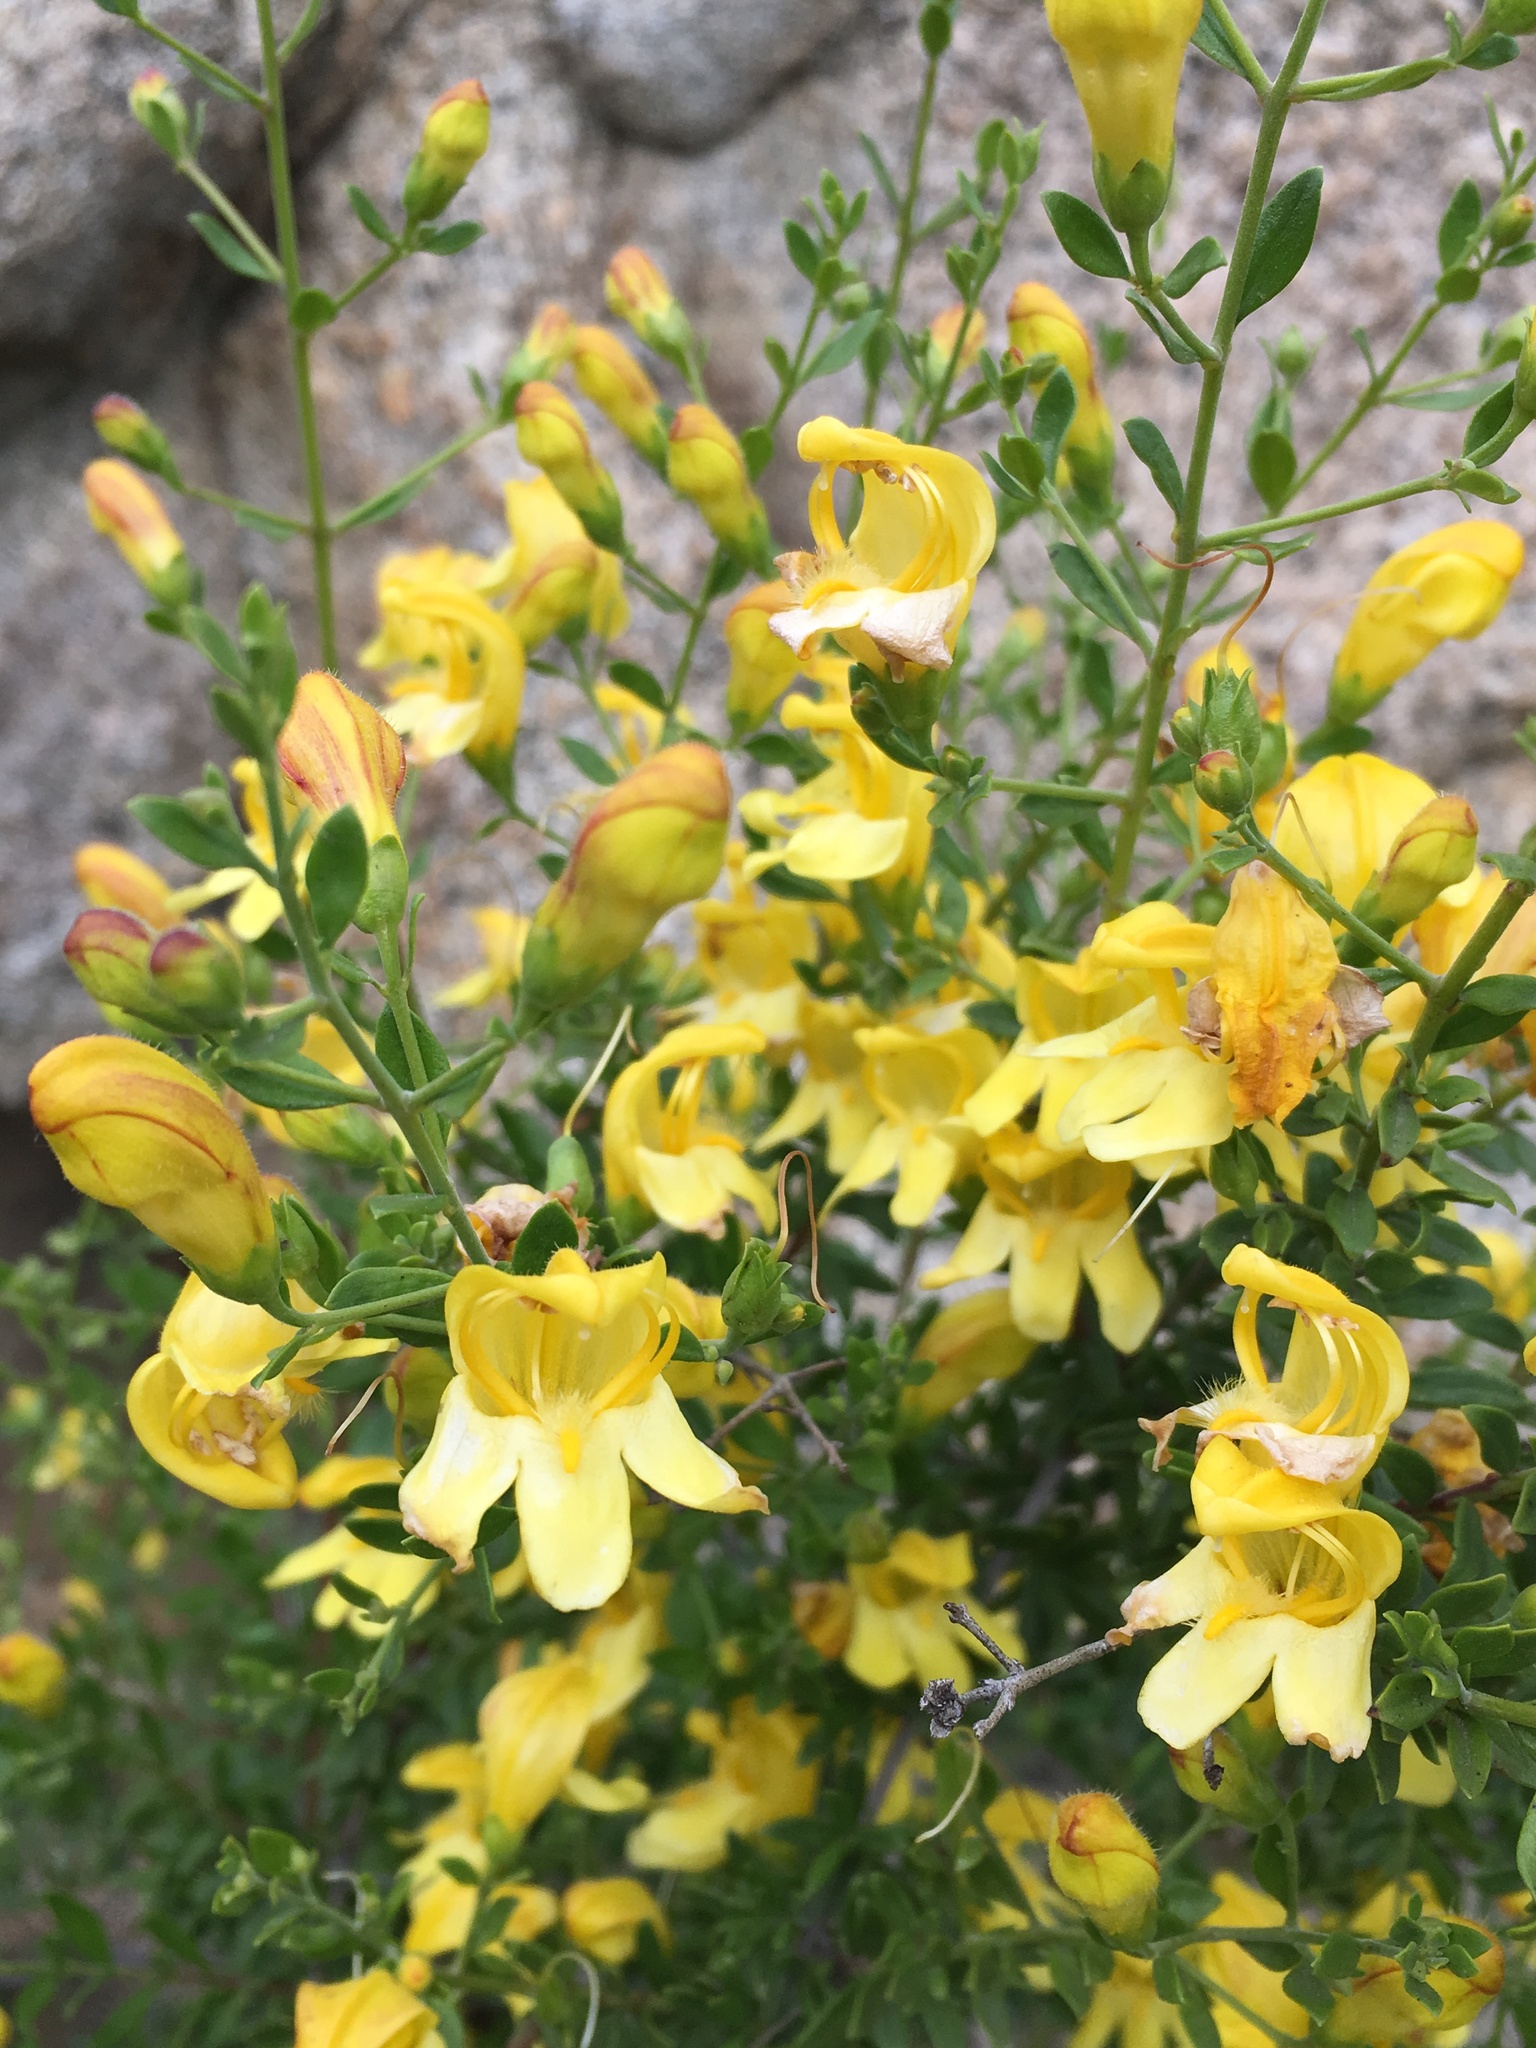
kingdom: Plantae
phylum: Tracheophyta
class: Magnoliopsida
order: Lamiales
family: Plantaginaceae
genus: Keckiella
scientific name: Keckiella antirrhinoides
